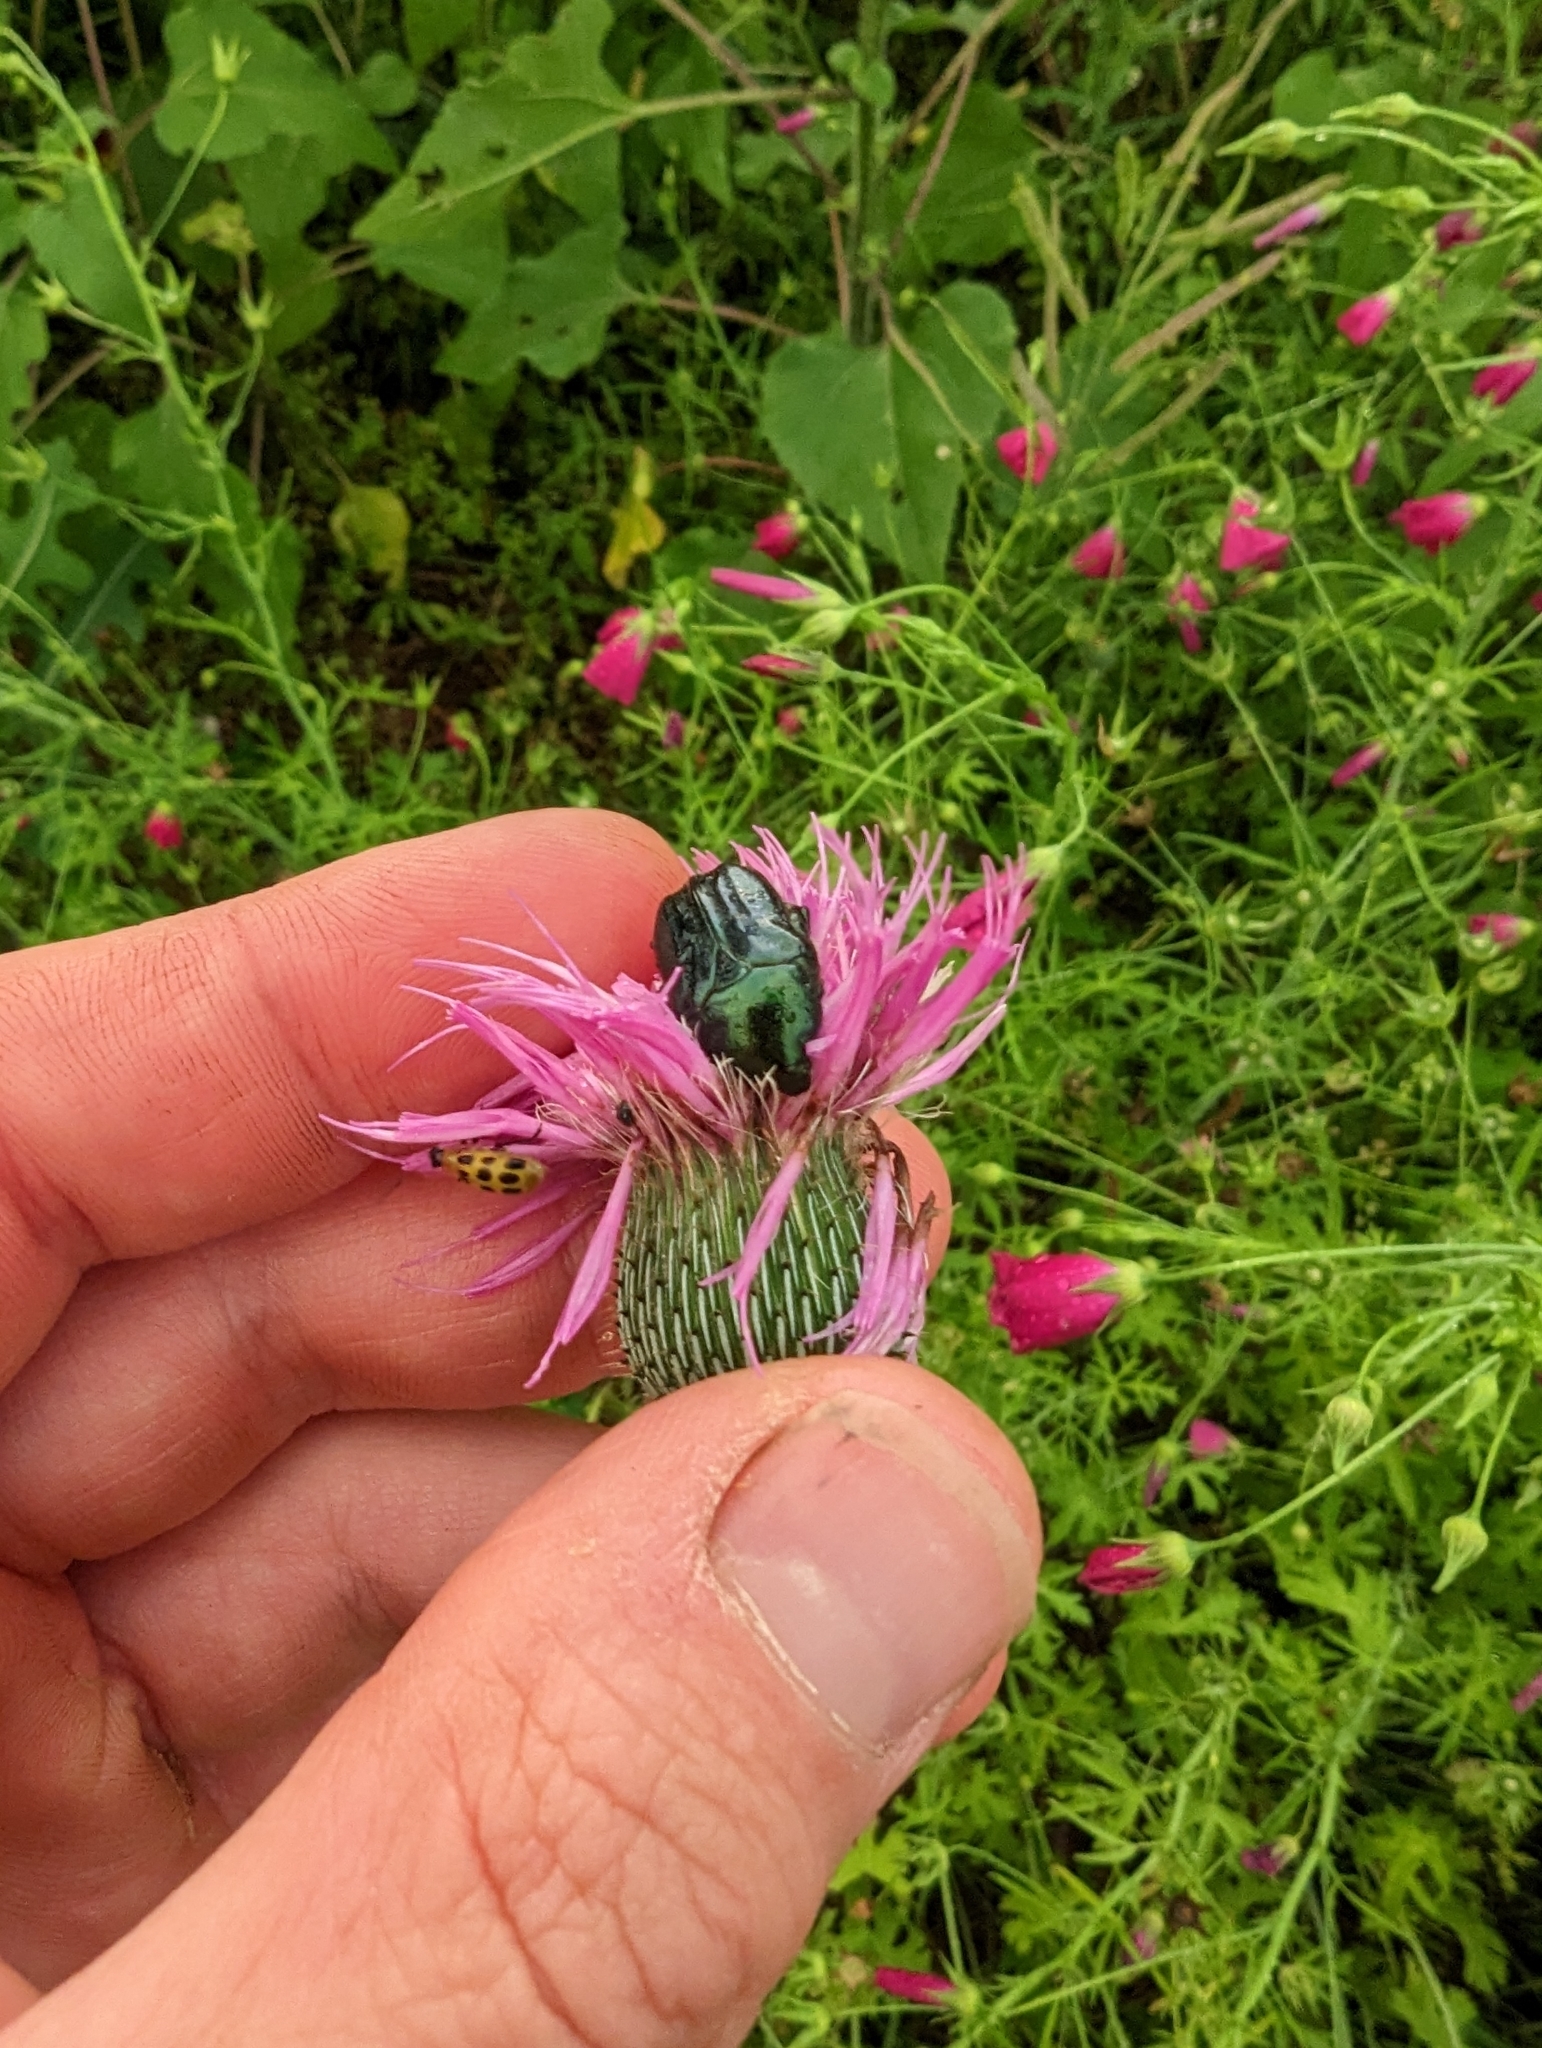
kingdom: Animalia
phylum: Arthropoda
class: Insecta
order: Coleoptera
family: Scarabaeidae
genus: Euphoria
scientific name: Euphoria sepulcralis
